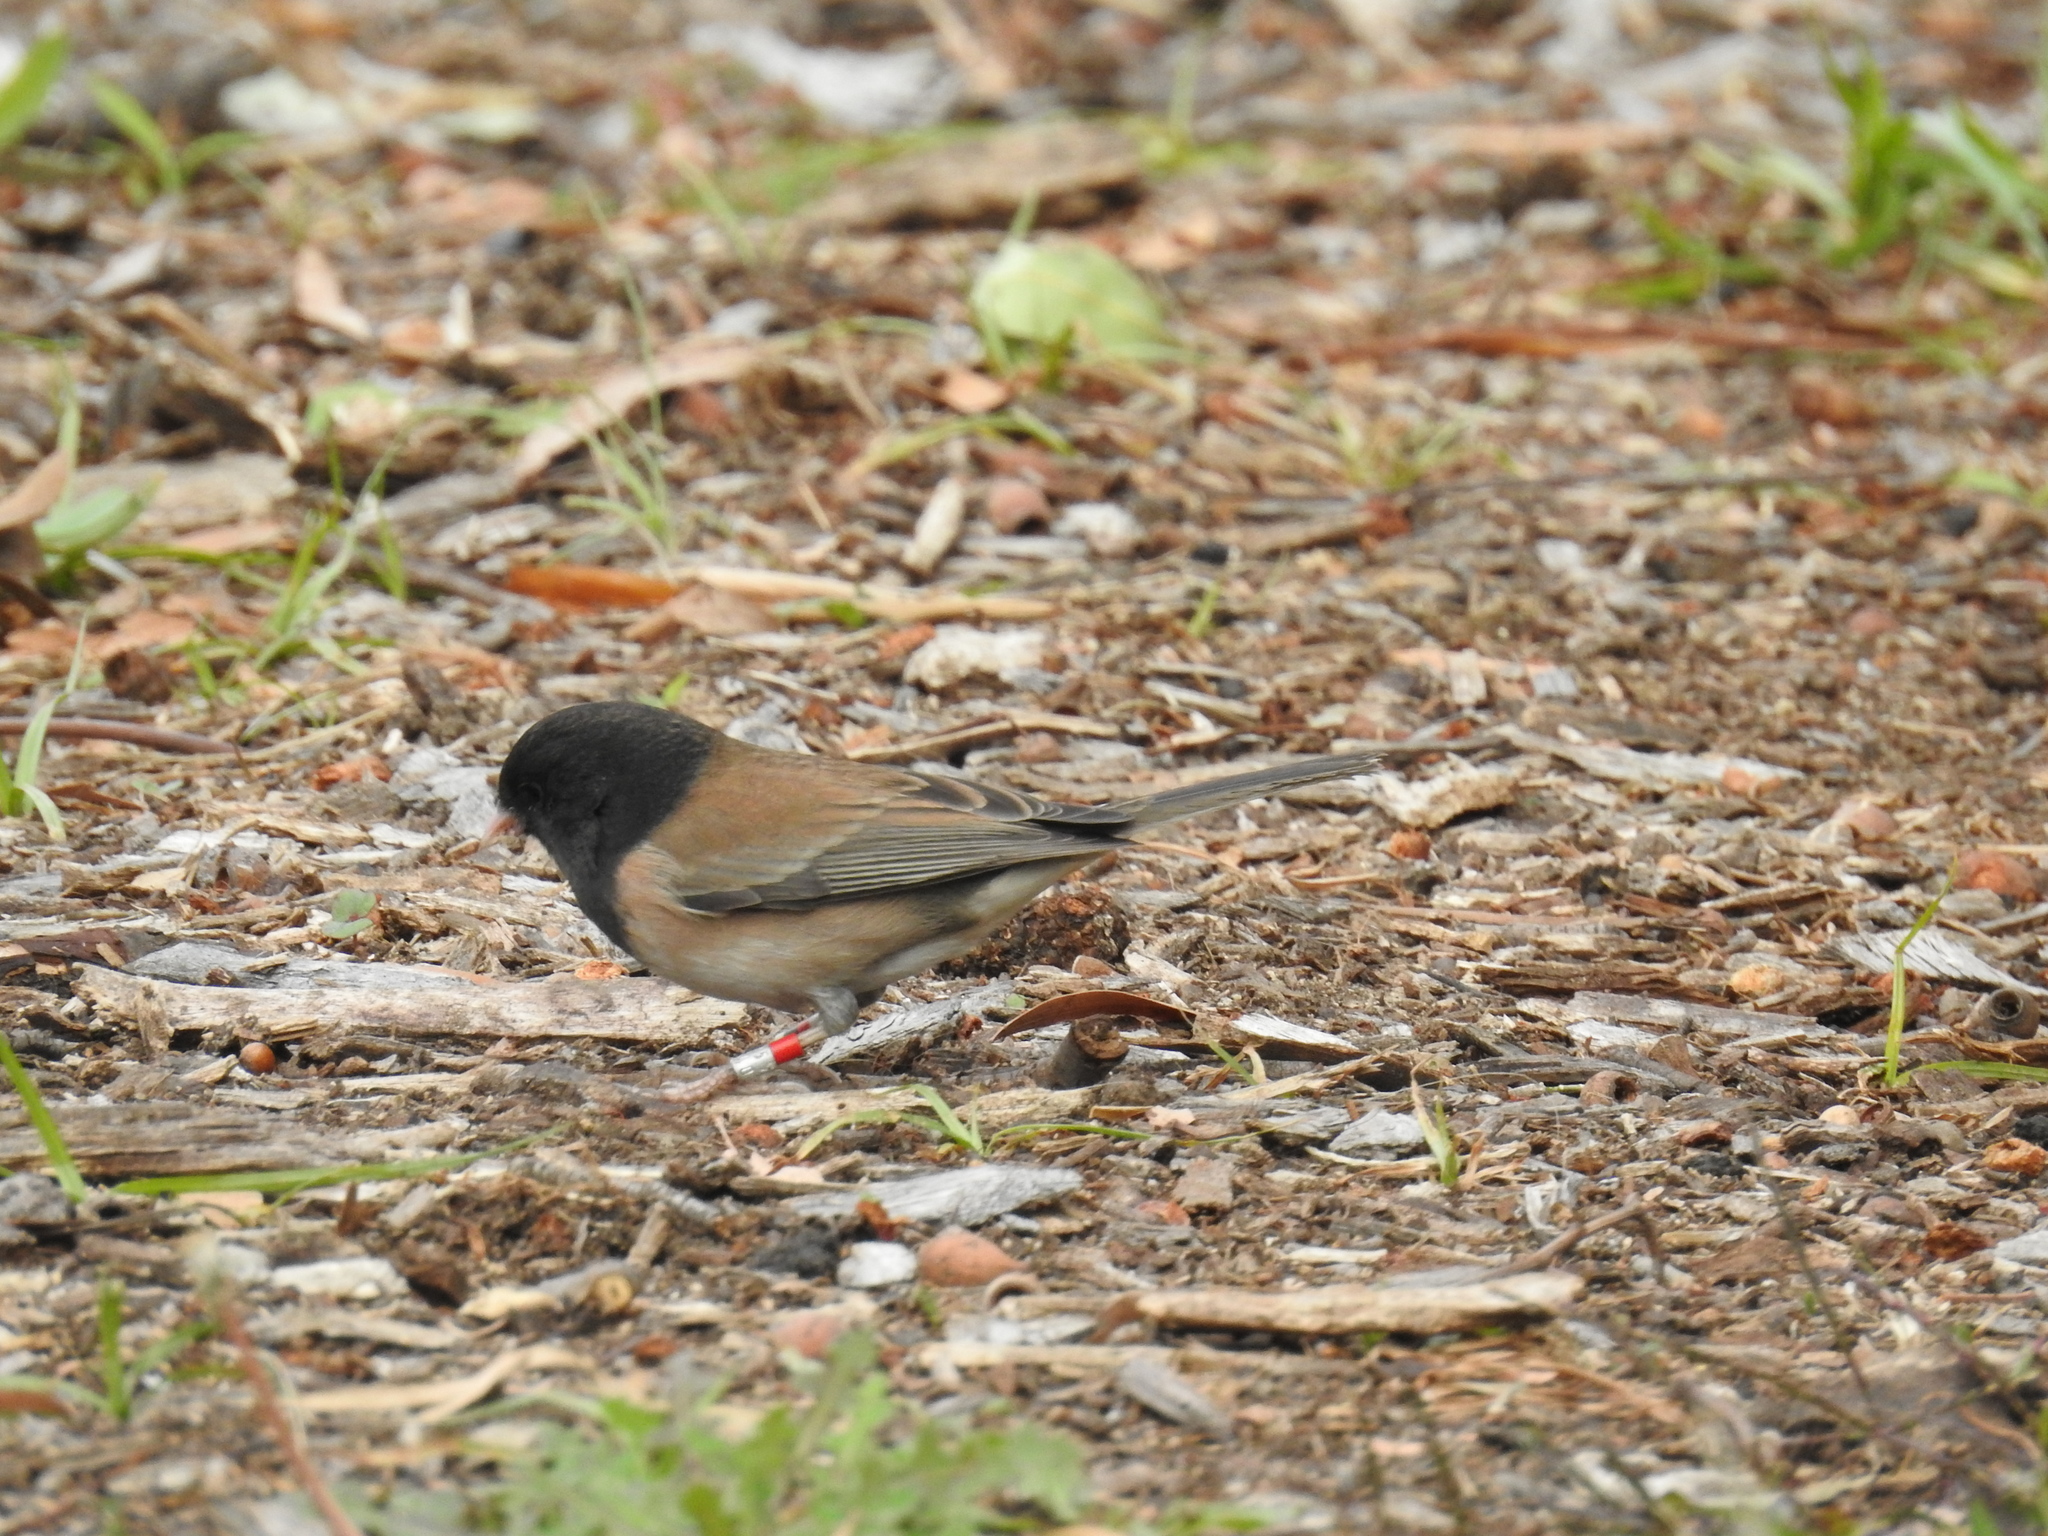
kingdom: Animalia
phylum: Chordata
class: Aves
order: Passeriformes
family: Passerellidae
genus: Junco
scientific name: Junco hyemalis
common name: Dark-eyed junco
